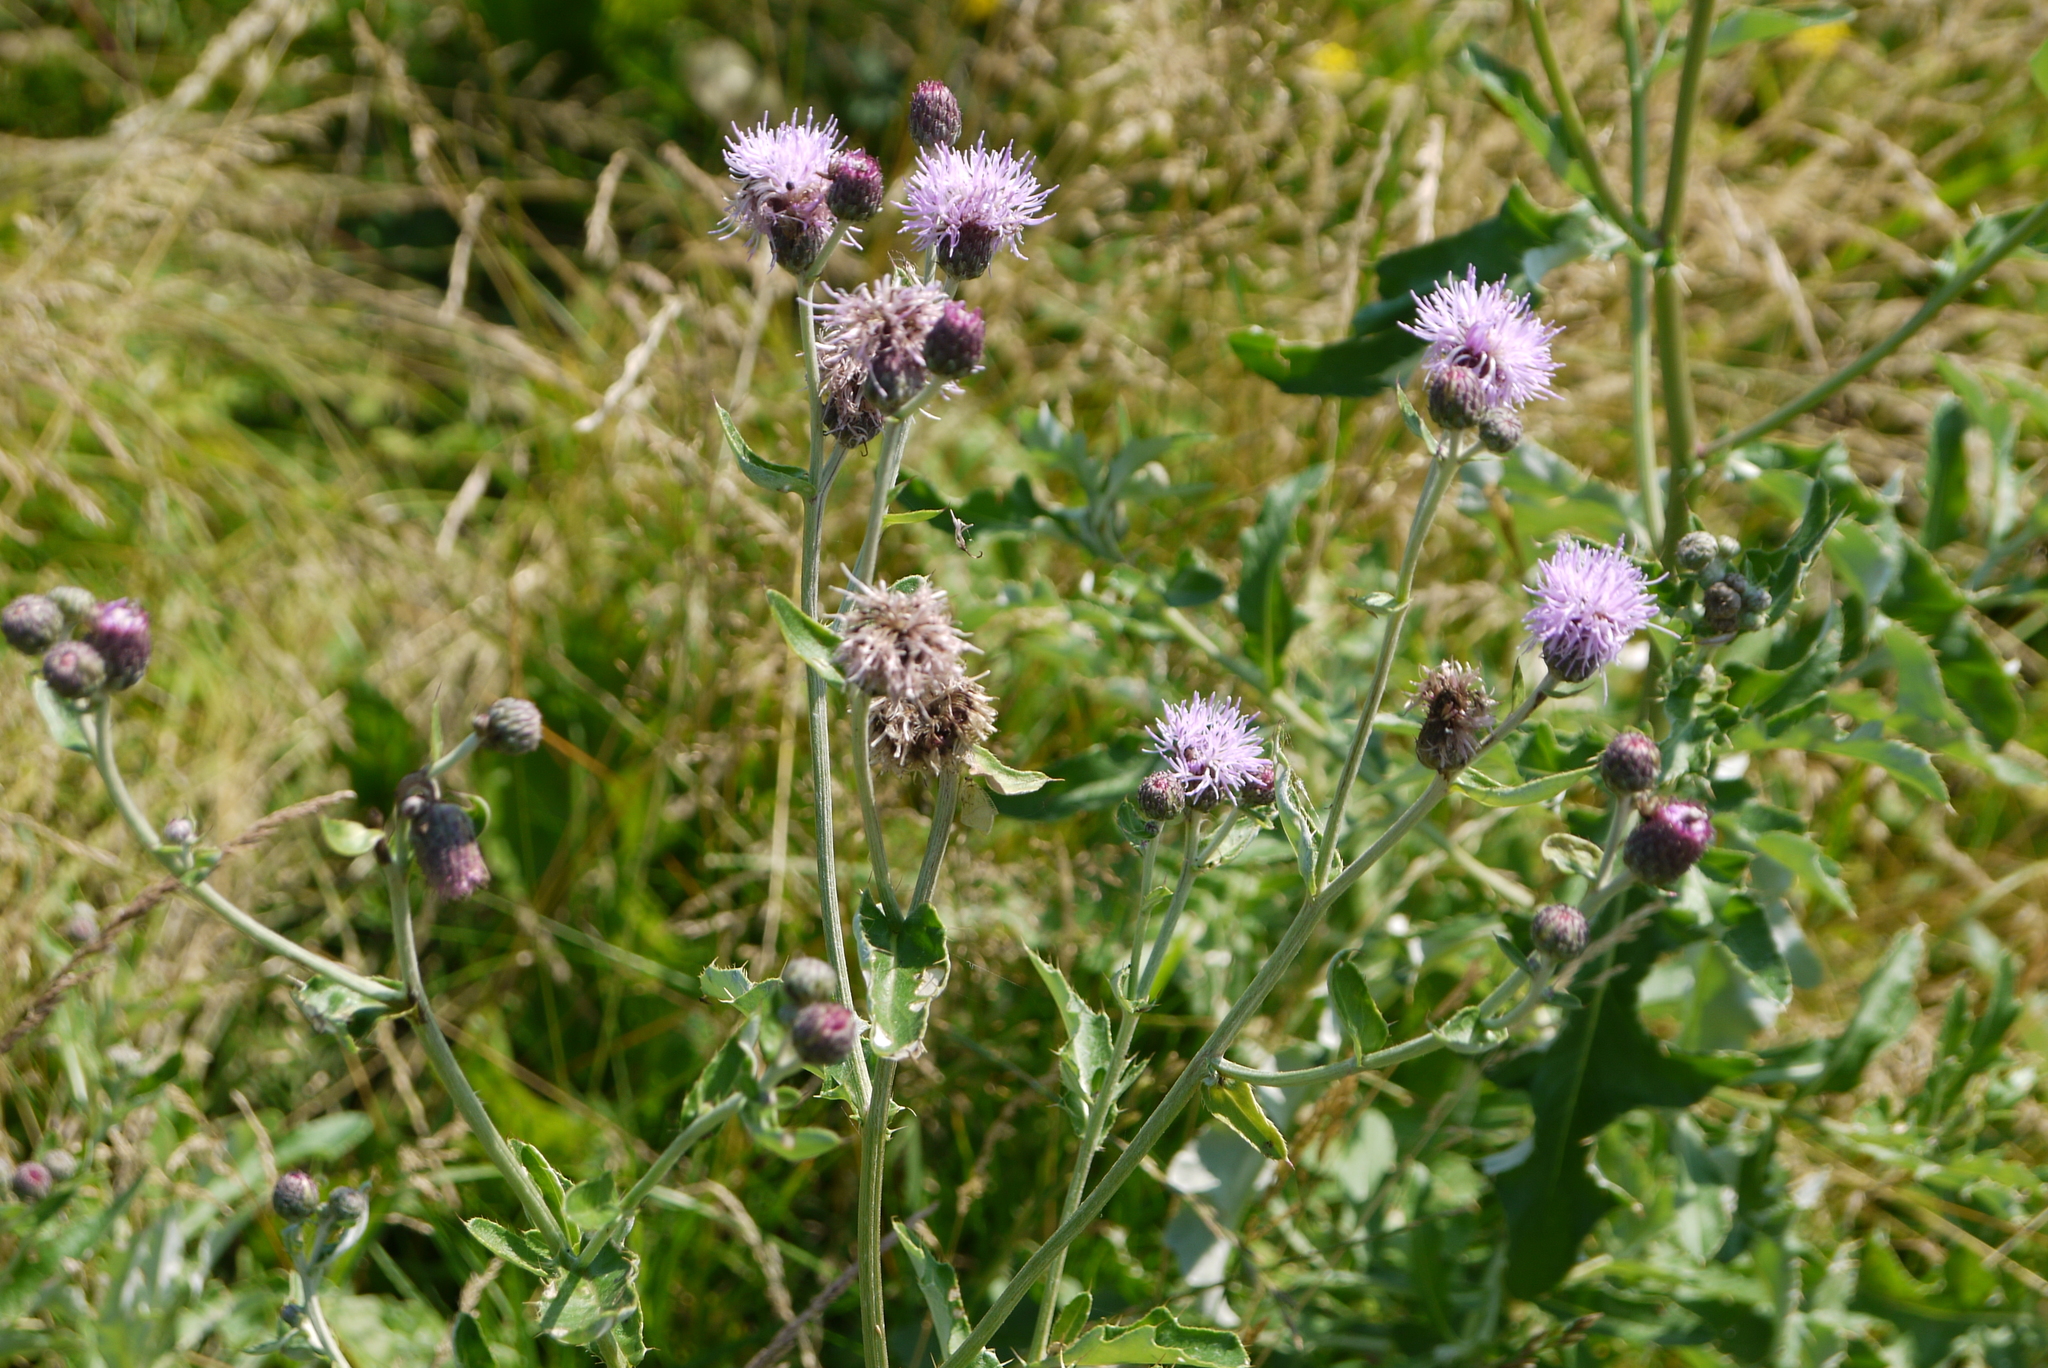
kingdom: Plantae
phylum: Tracheophyta
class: Magnoliopsida
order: Asterales
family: Asteraceae
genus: Cirsium
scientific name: Cirsium arvense
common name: Creeping thistle
